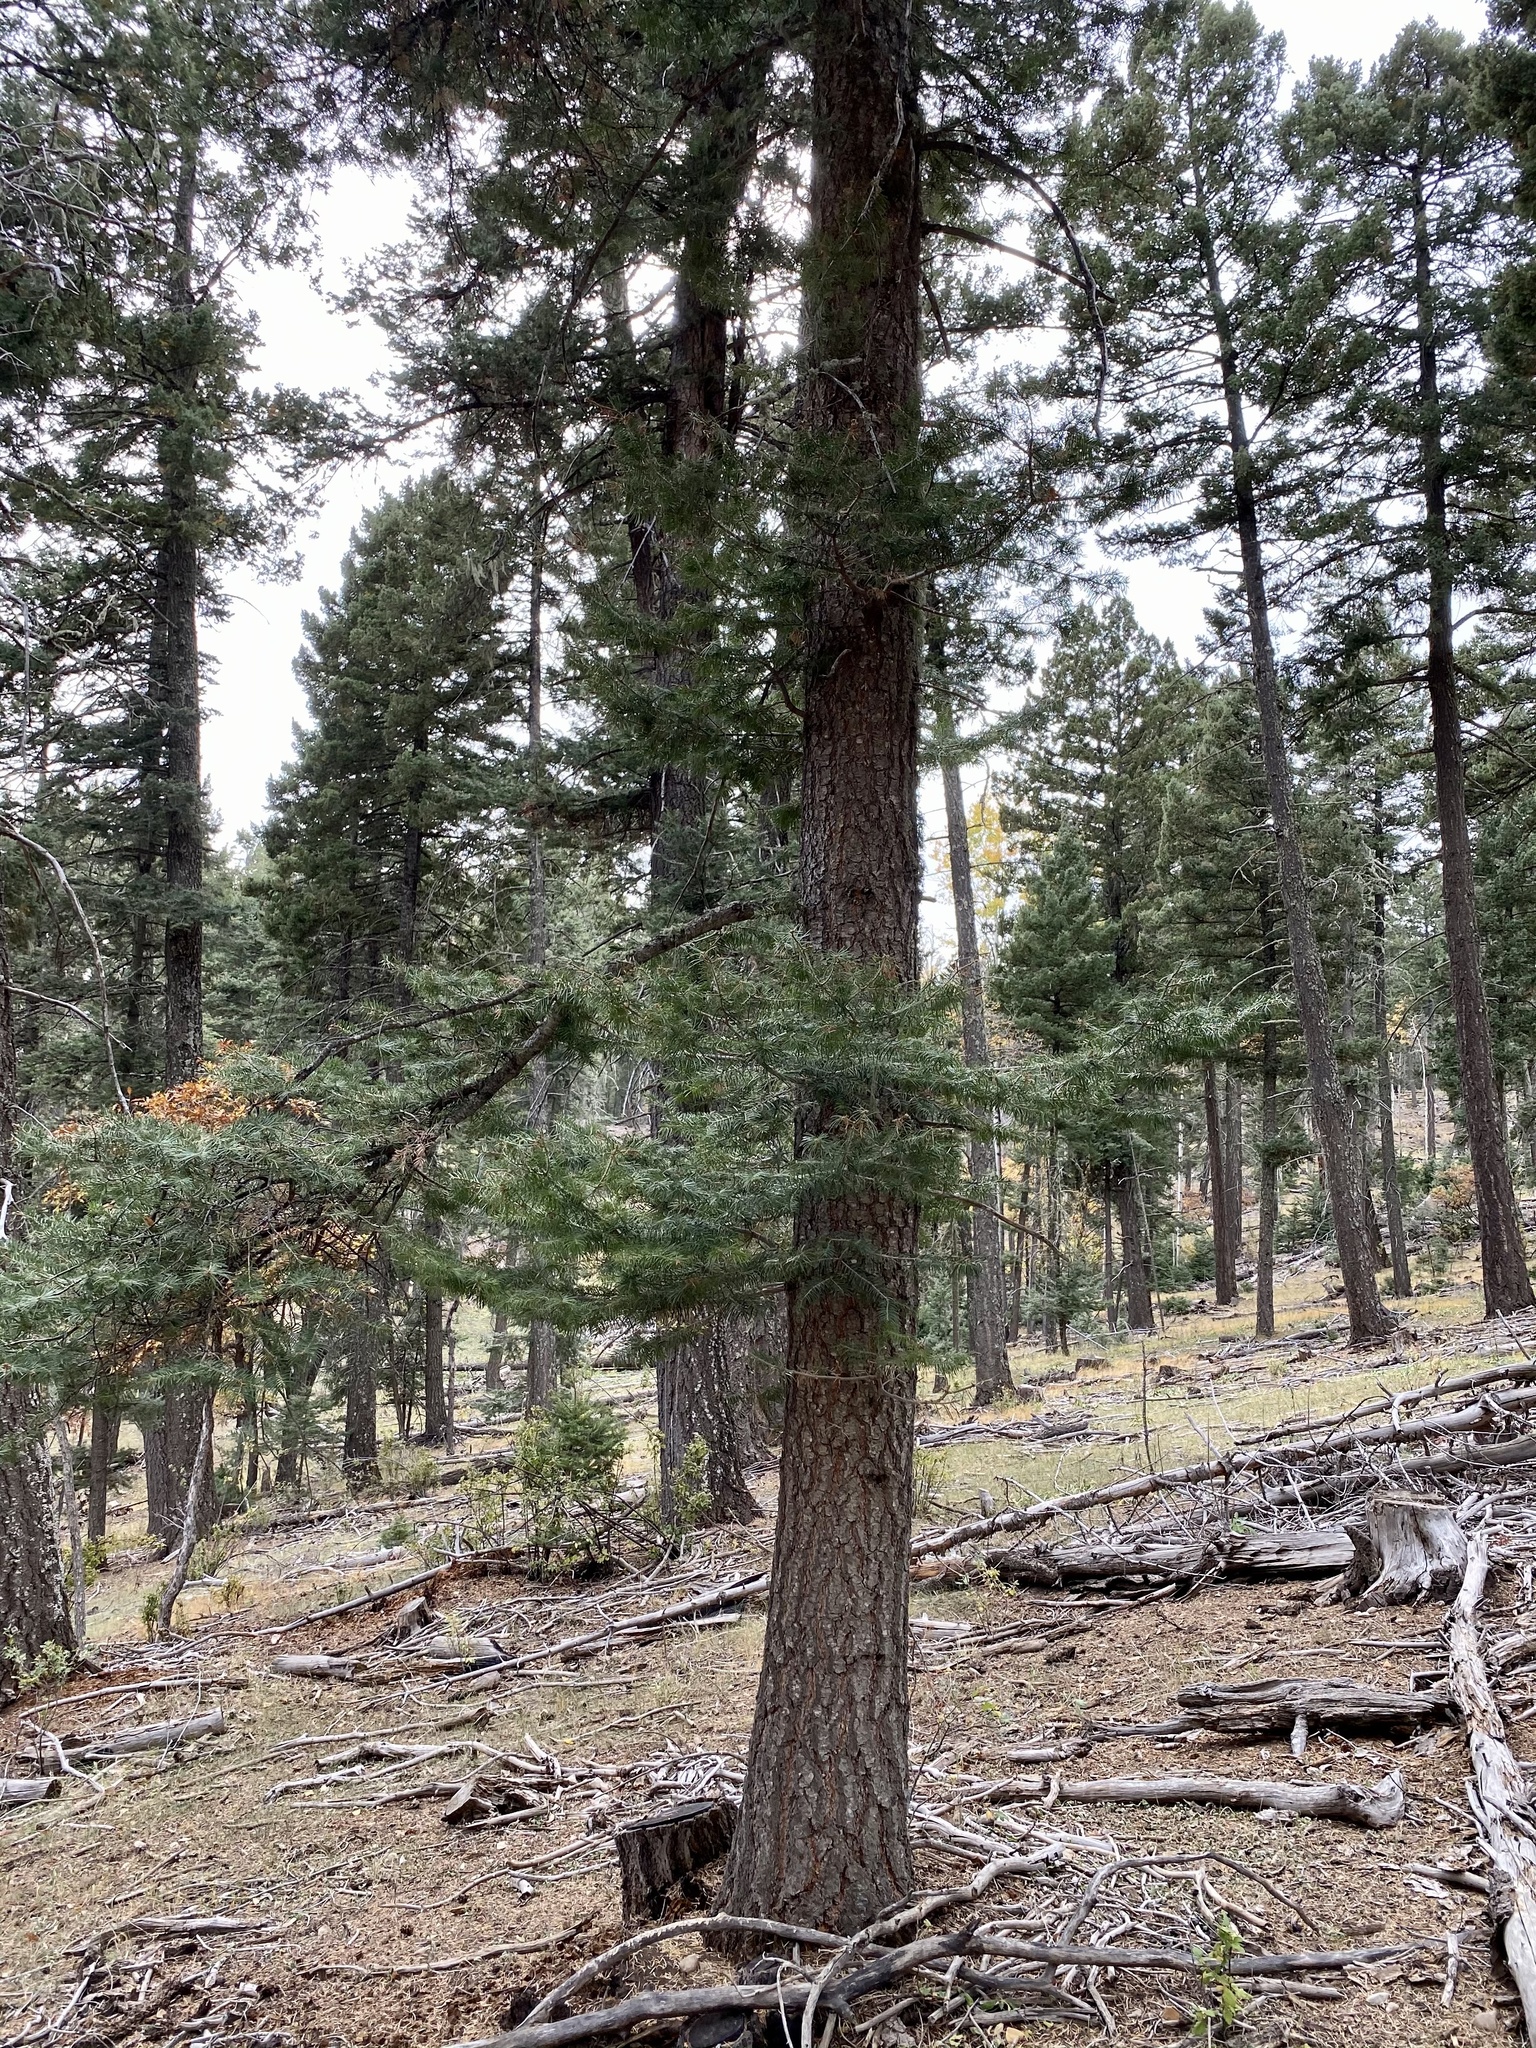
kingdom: Plantae
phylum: Tracheophyta
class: Pinopsida
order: Pinales
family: Pinaceae
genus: Abies
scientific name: Abies concolor
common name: Colorado fir
